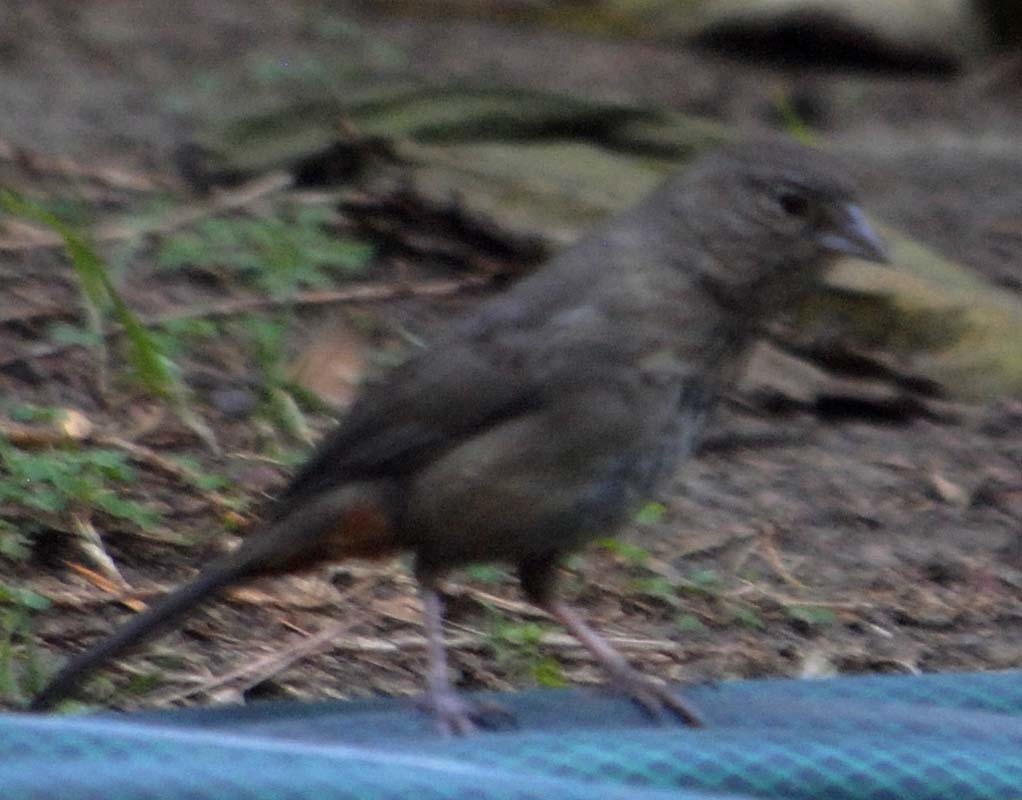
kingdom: Animalia
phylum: Chordata
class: Aves
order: Passeriformes
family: Passerellidae
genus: Melozone
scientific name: Melozone fusca
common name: Canyon towhee
